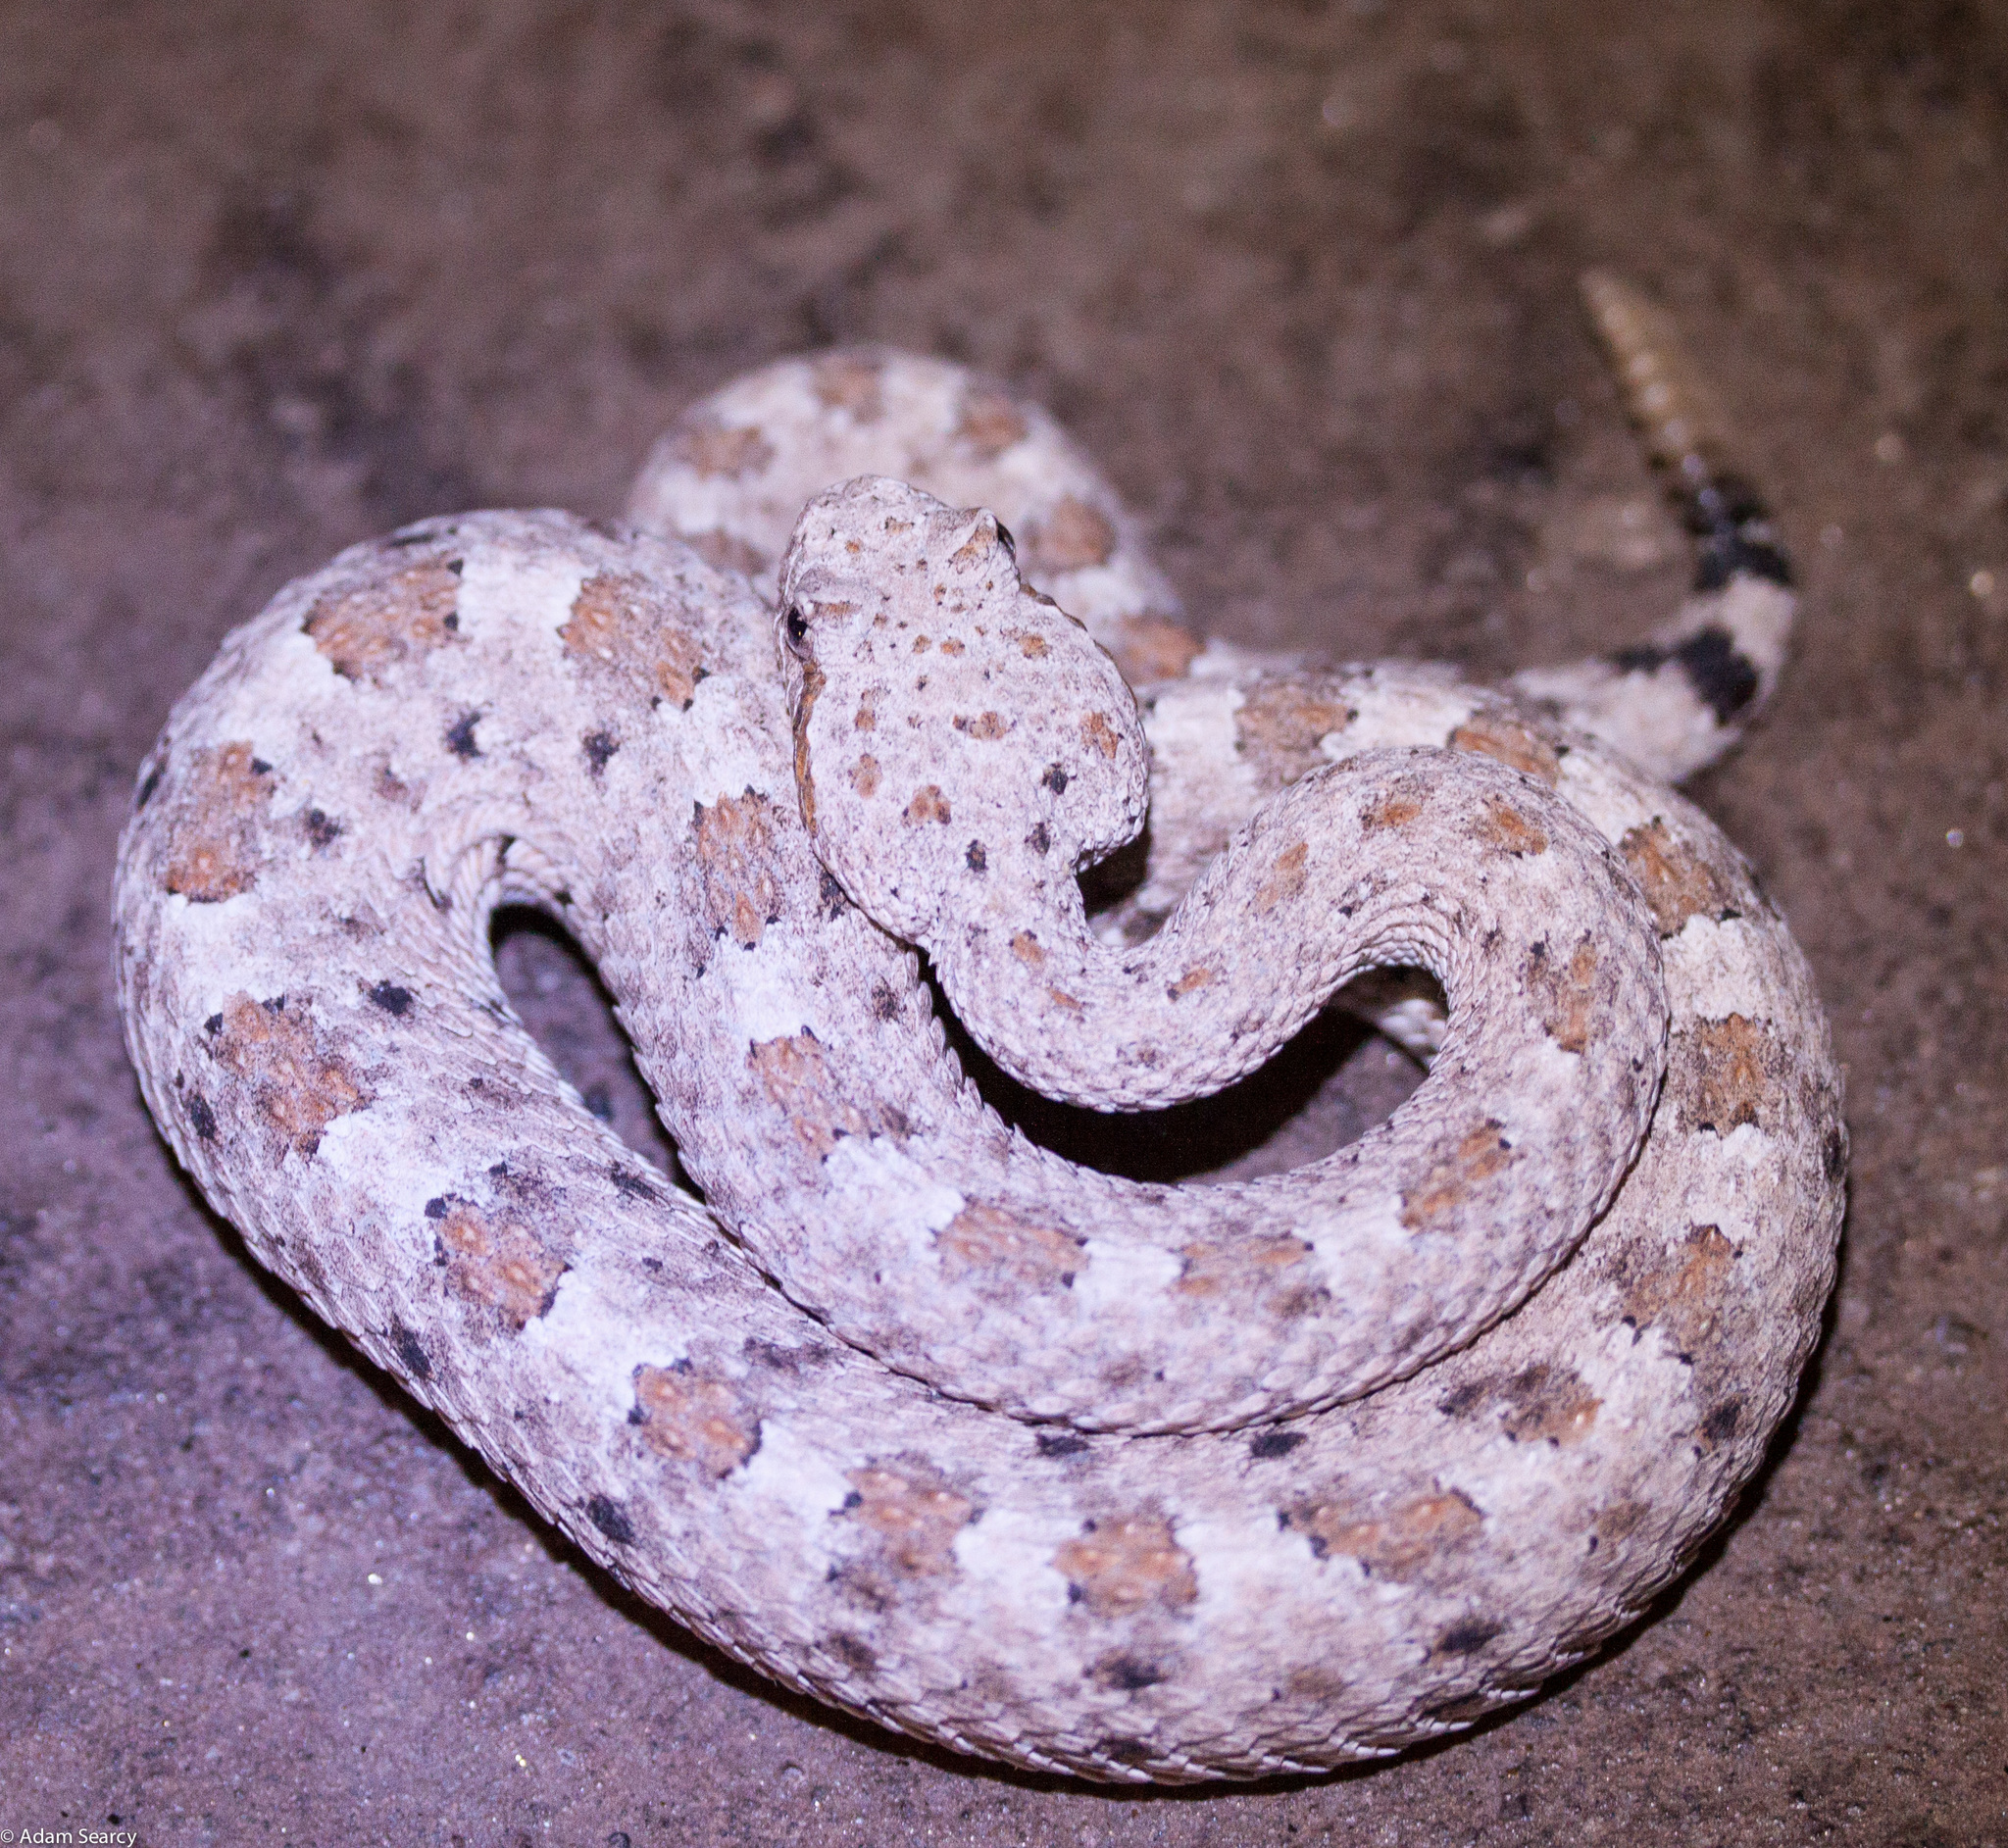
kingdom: Animalia
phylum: Chordata
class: Squamata
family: Viperidae
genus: Crotalus
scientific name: Crotalus cerastes
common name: Sidewinder
